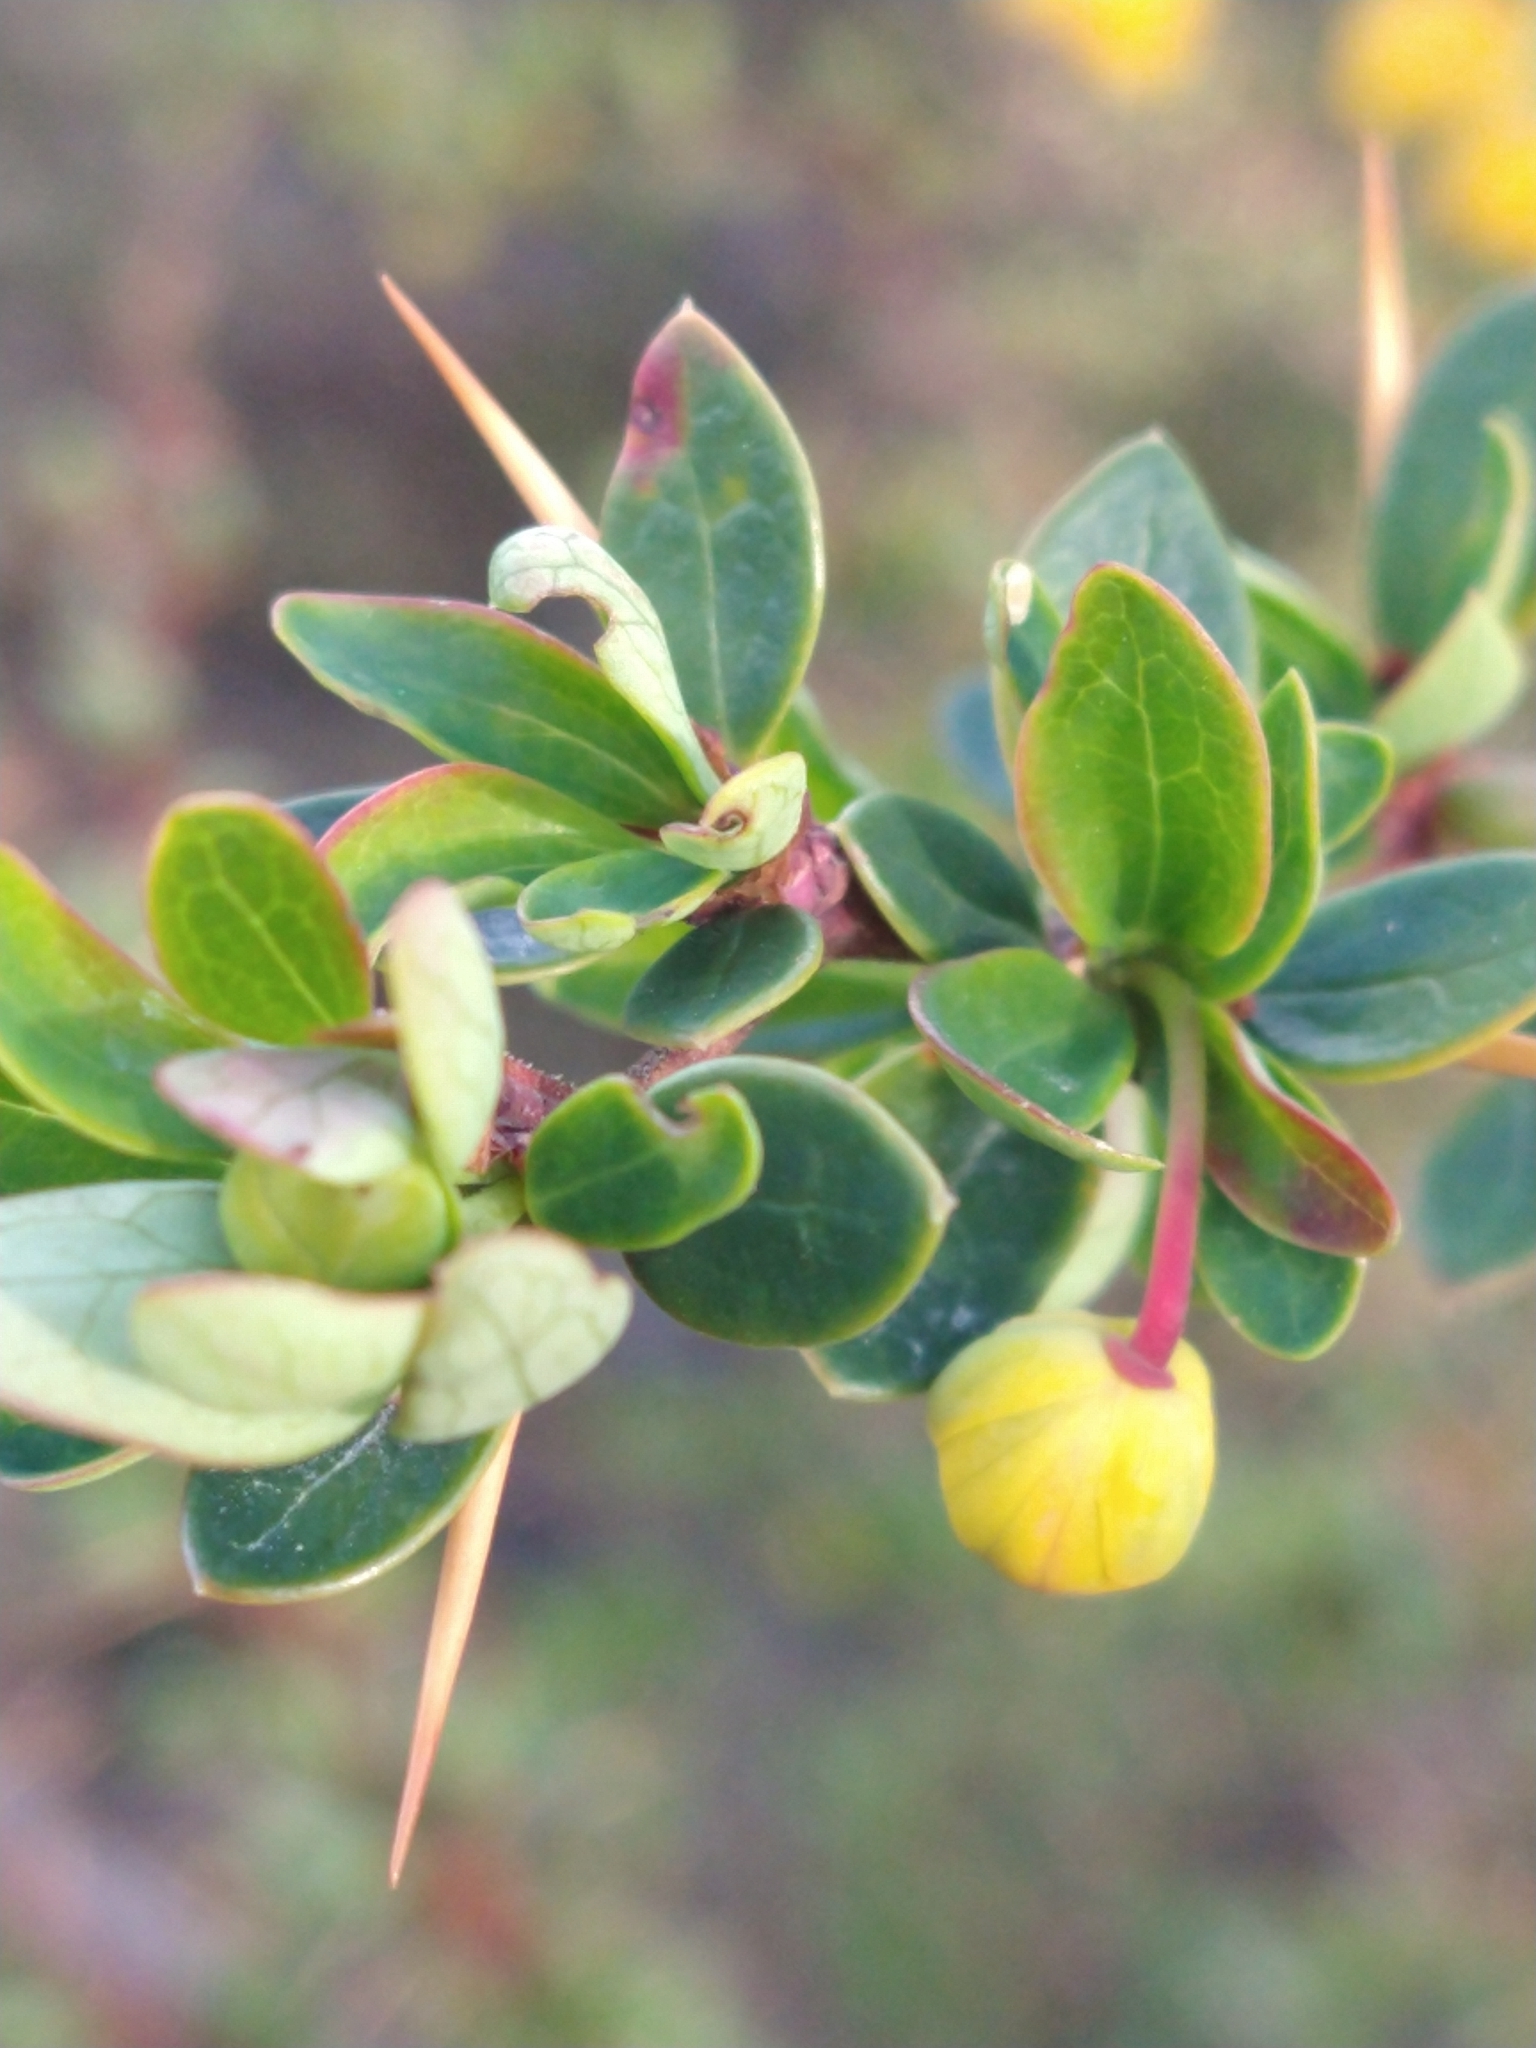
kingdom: Plantae
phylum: Tracheophyta
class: Magnoliopsida
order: Ranunculales
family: Berberidaceae
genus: Berberis
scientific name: Berberis microphylla
